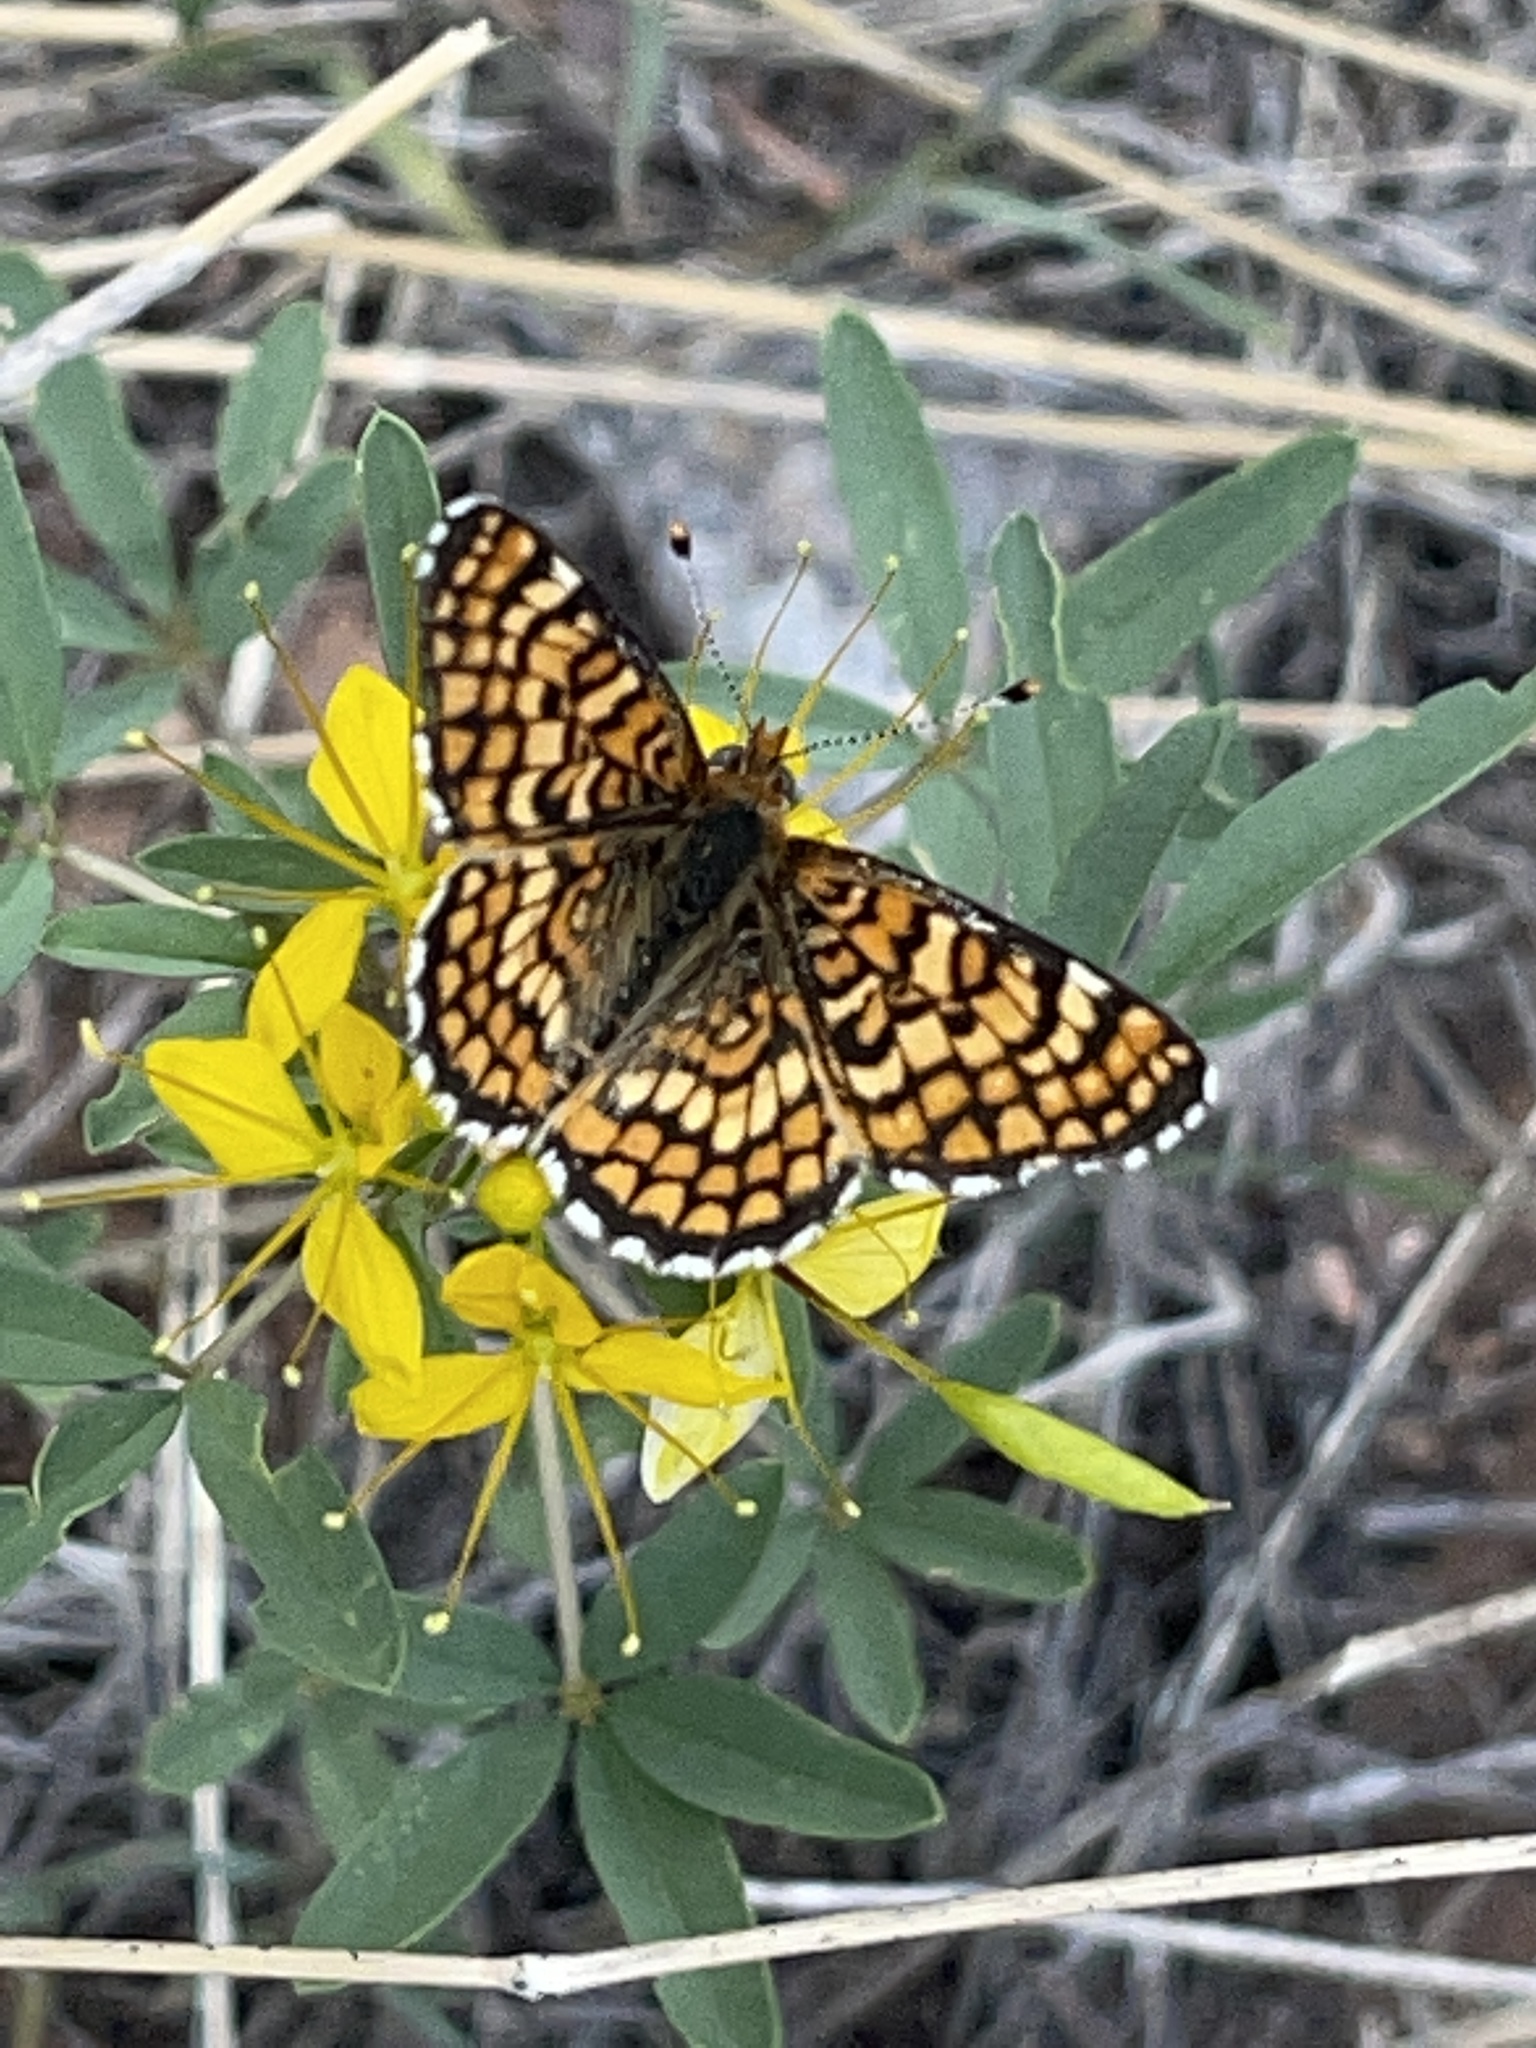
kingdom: Animalia
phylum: Arthropoda
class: Insecta
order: Lepidoptera
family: Nymphalidae
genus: Poladryas
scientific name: Poladryas minuta
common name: Dotted checkerspot
